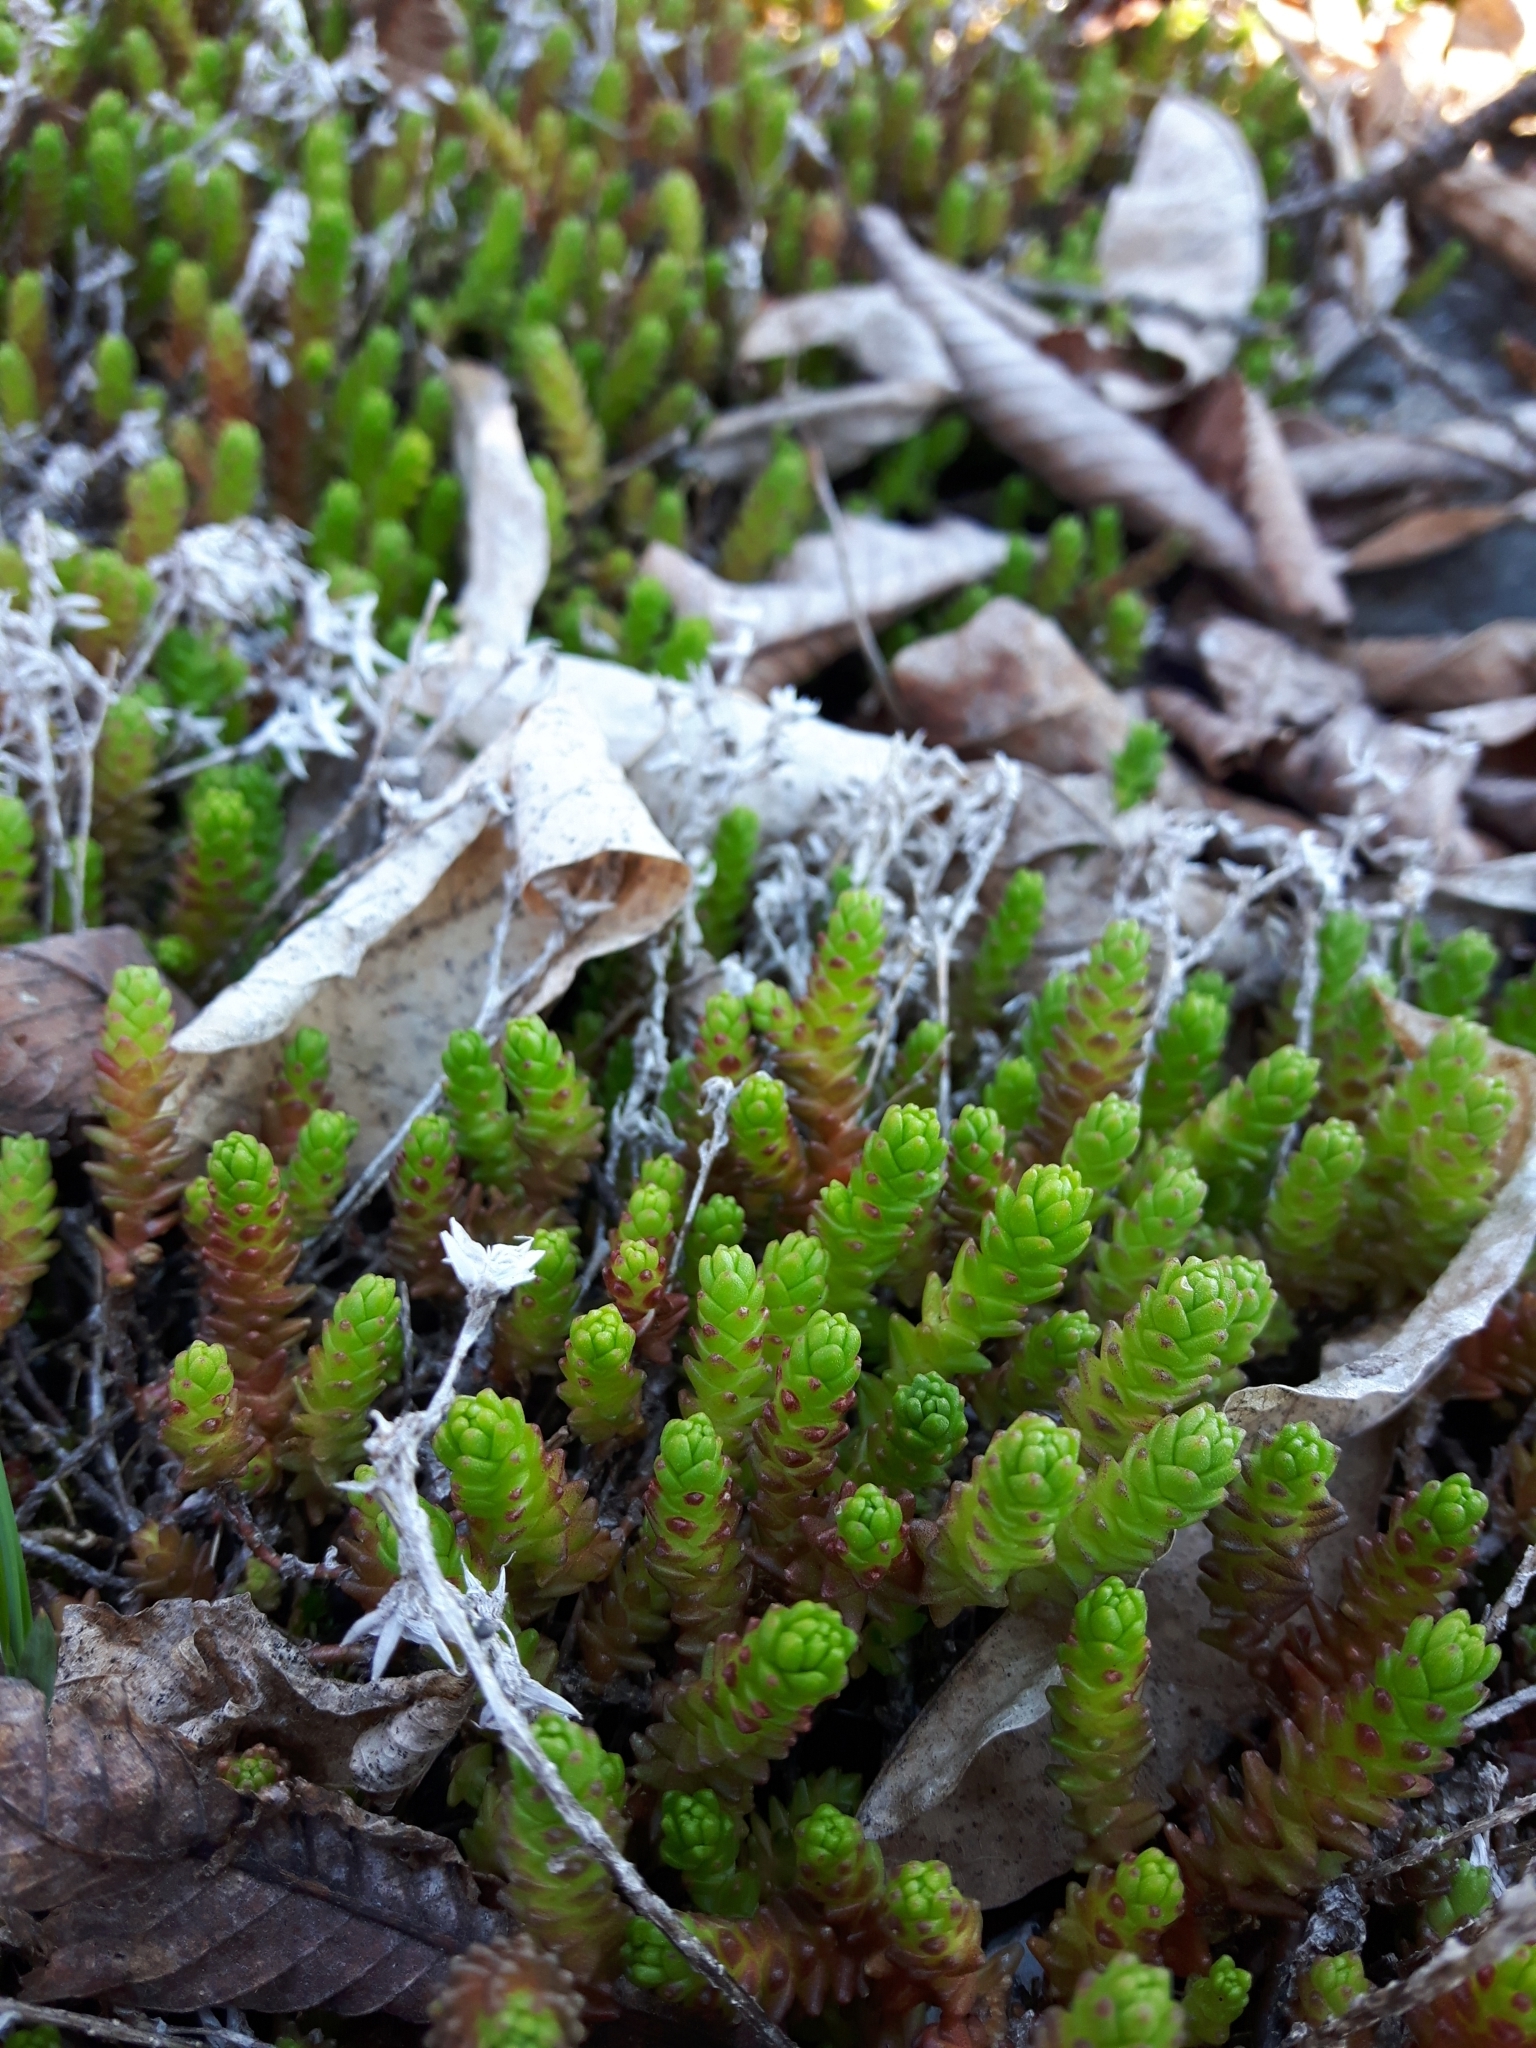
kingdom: Plantae
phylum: Tracheophyta
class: Magnoliopsida
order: Saxifragales
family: Crassulaceae
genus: Sedum
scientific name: Sedum acre
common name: Biting stonecrop
